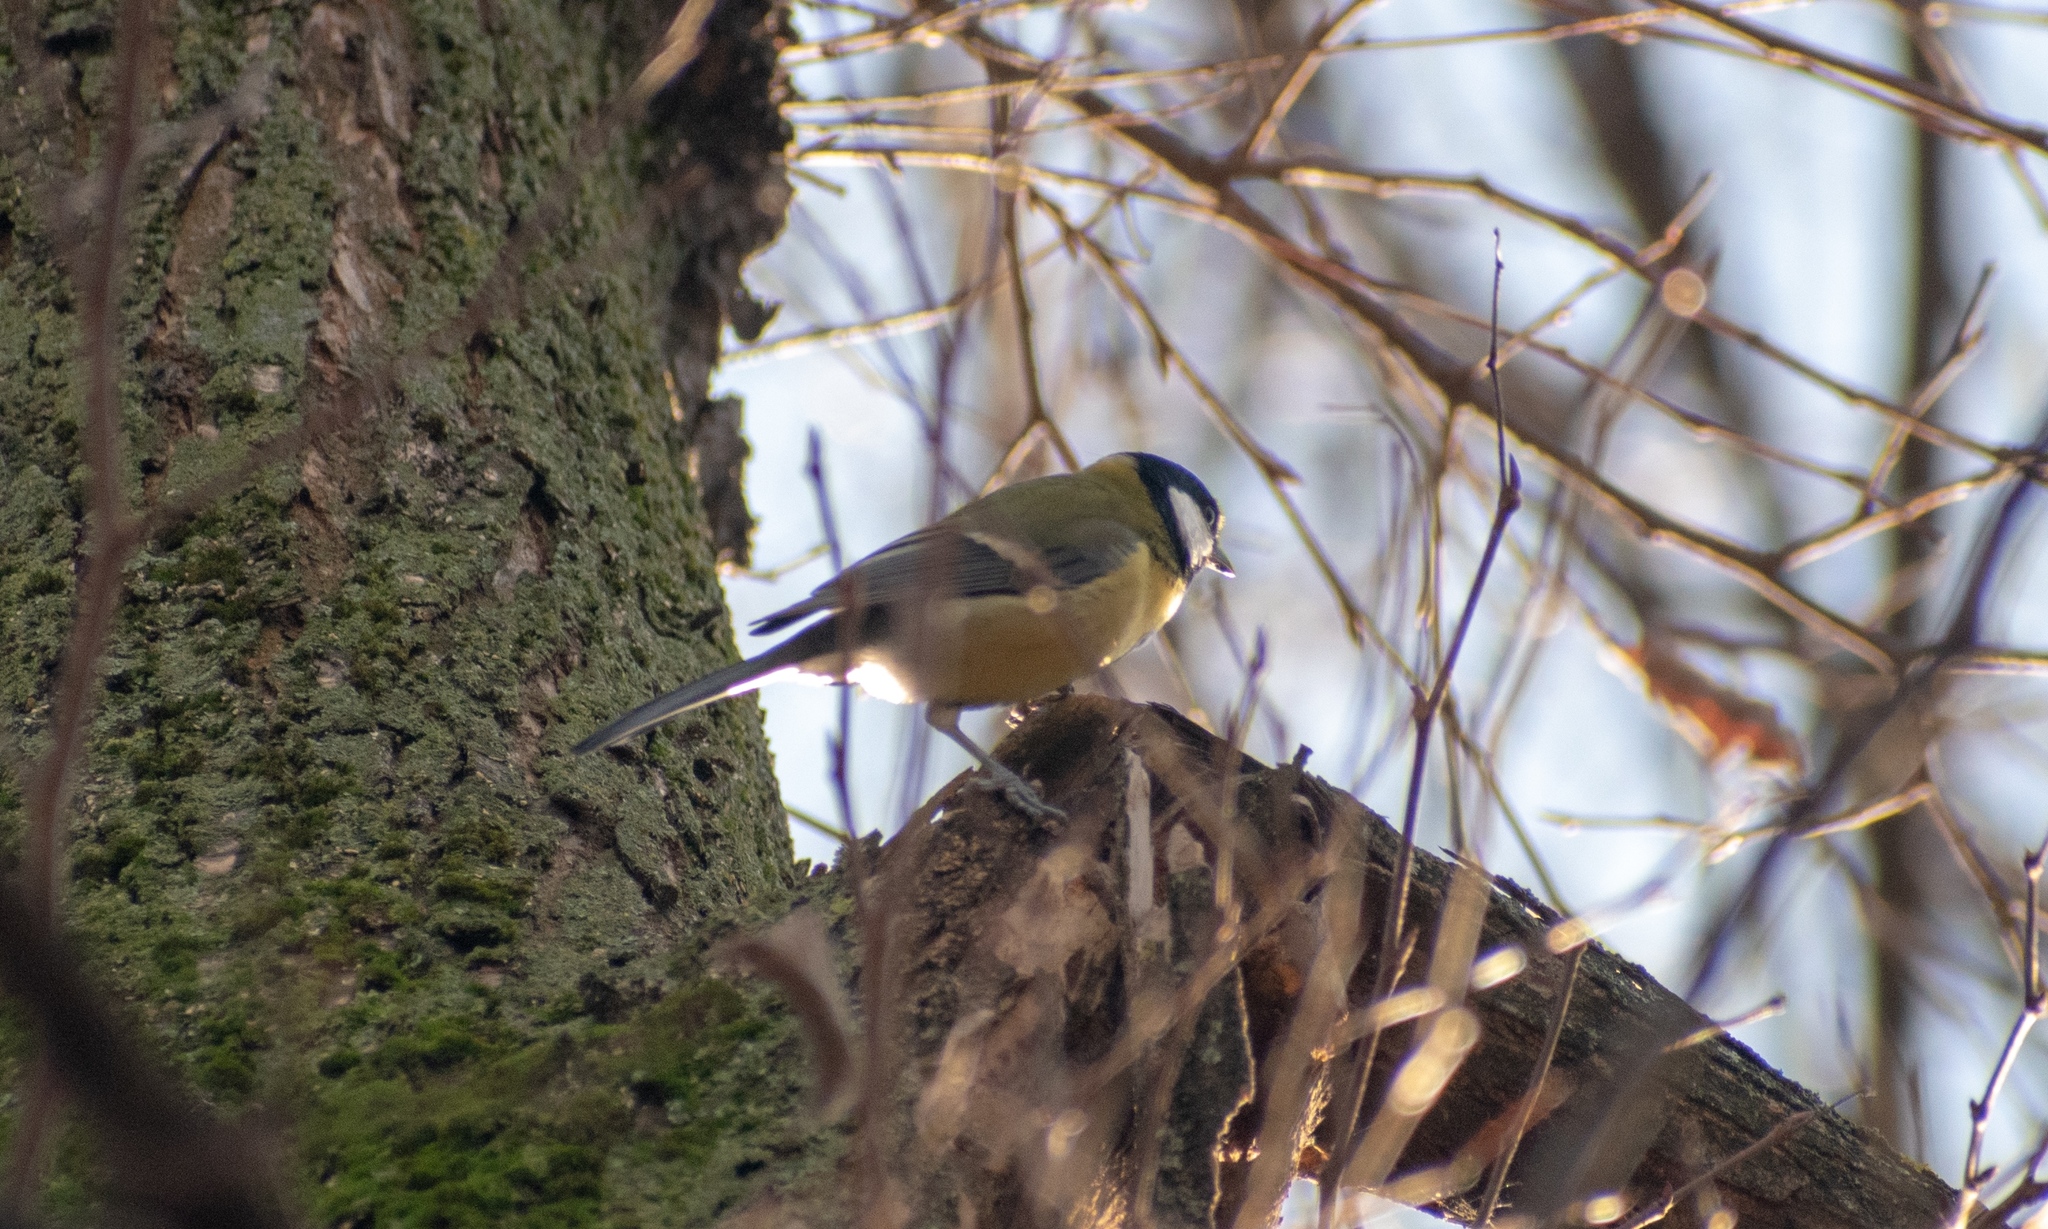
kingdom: Animalia
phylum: Chordata
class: Aves
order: Passeriformes
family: Paridae
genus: Parus
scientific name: Parus major
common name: Great tit
